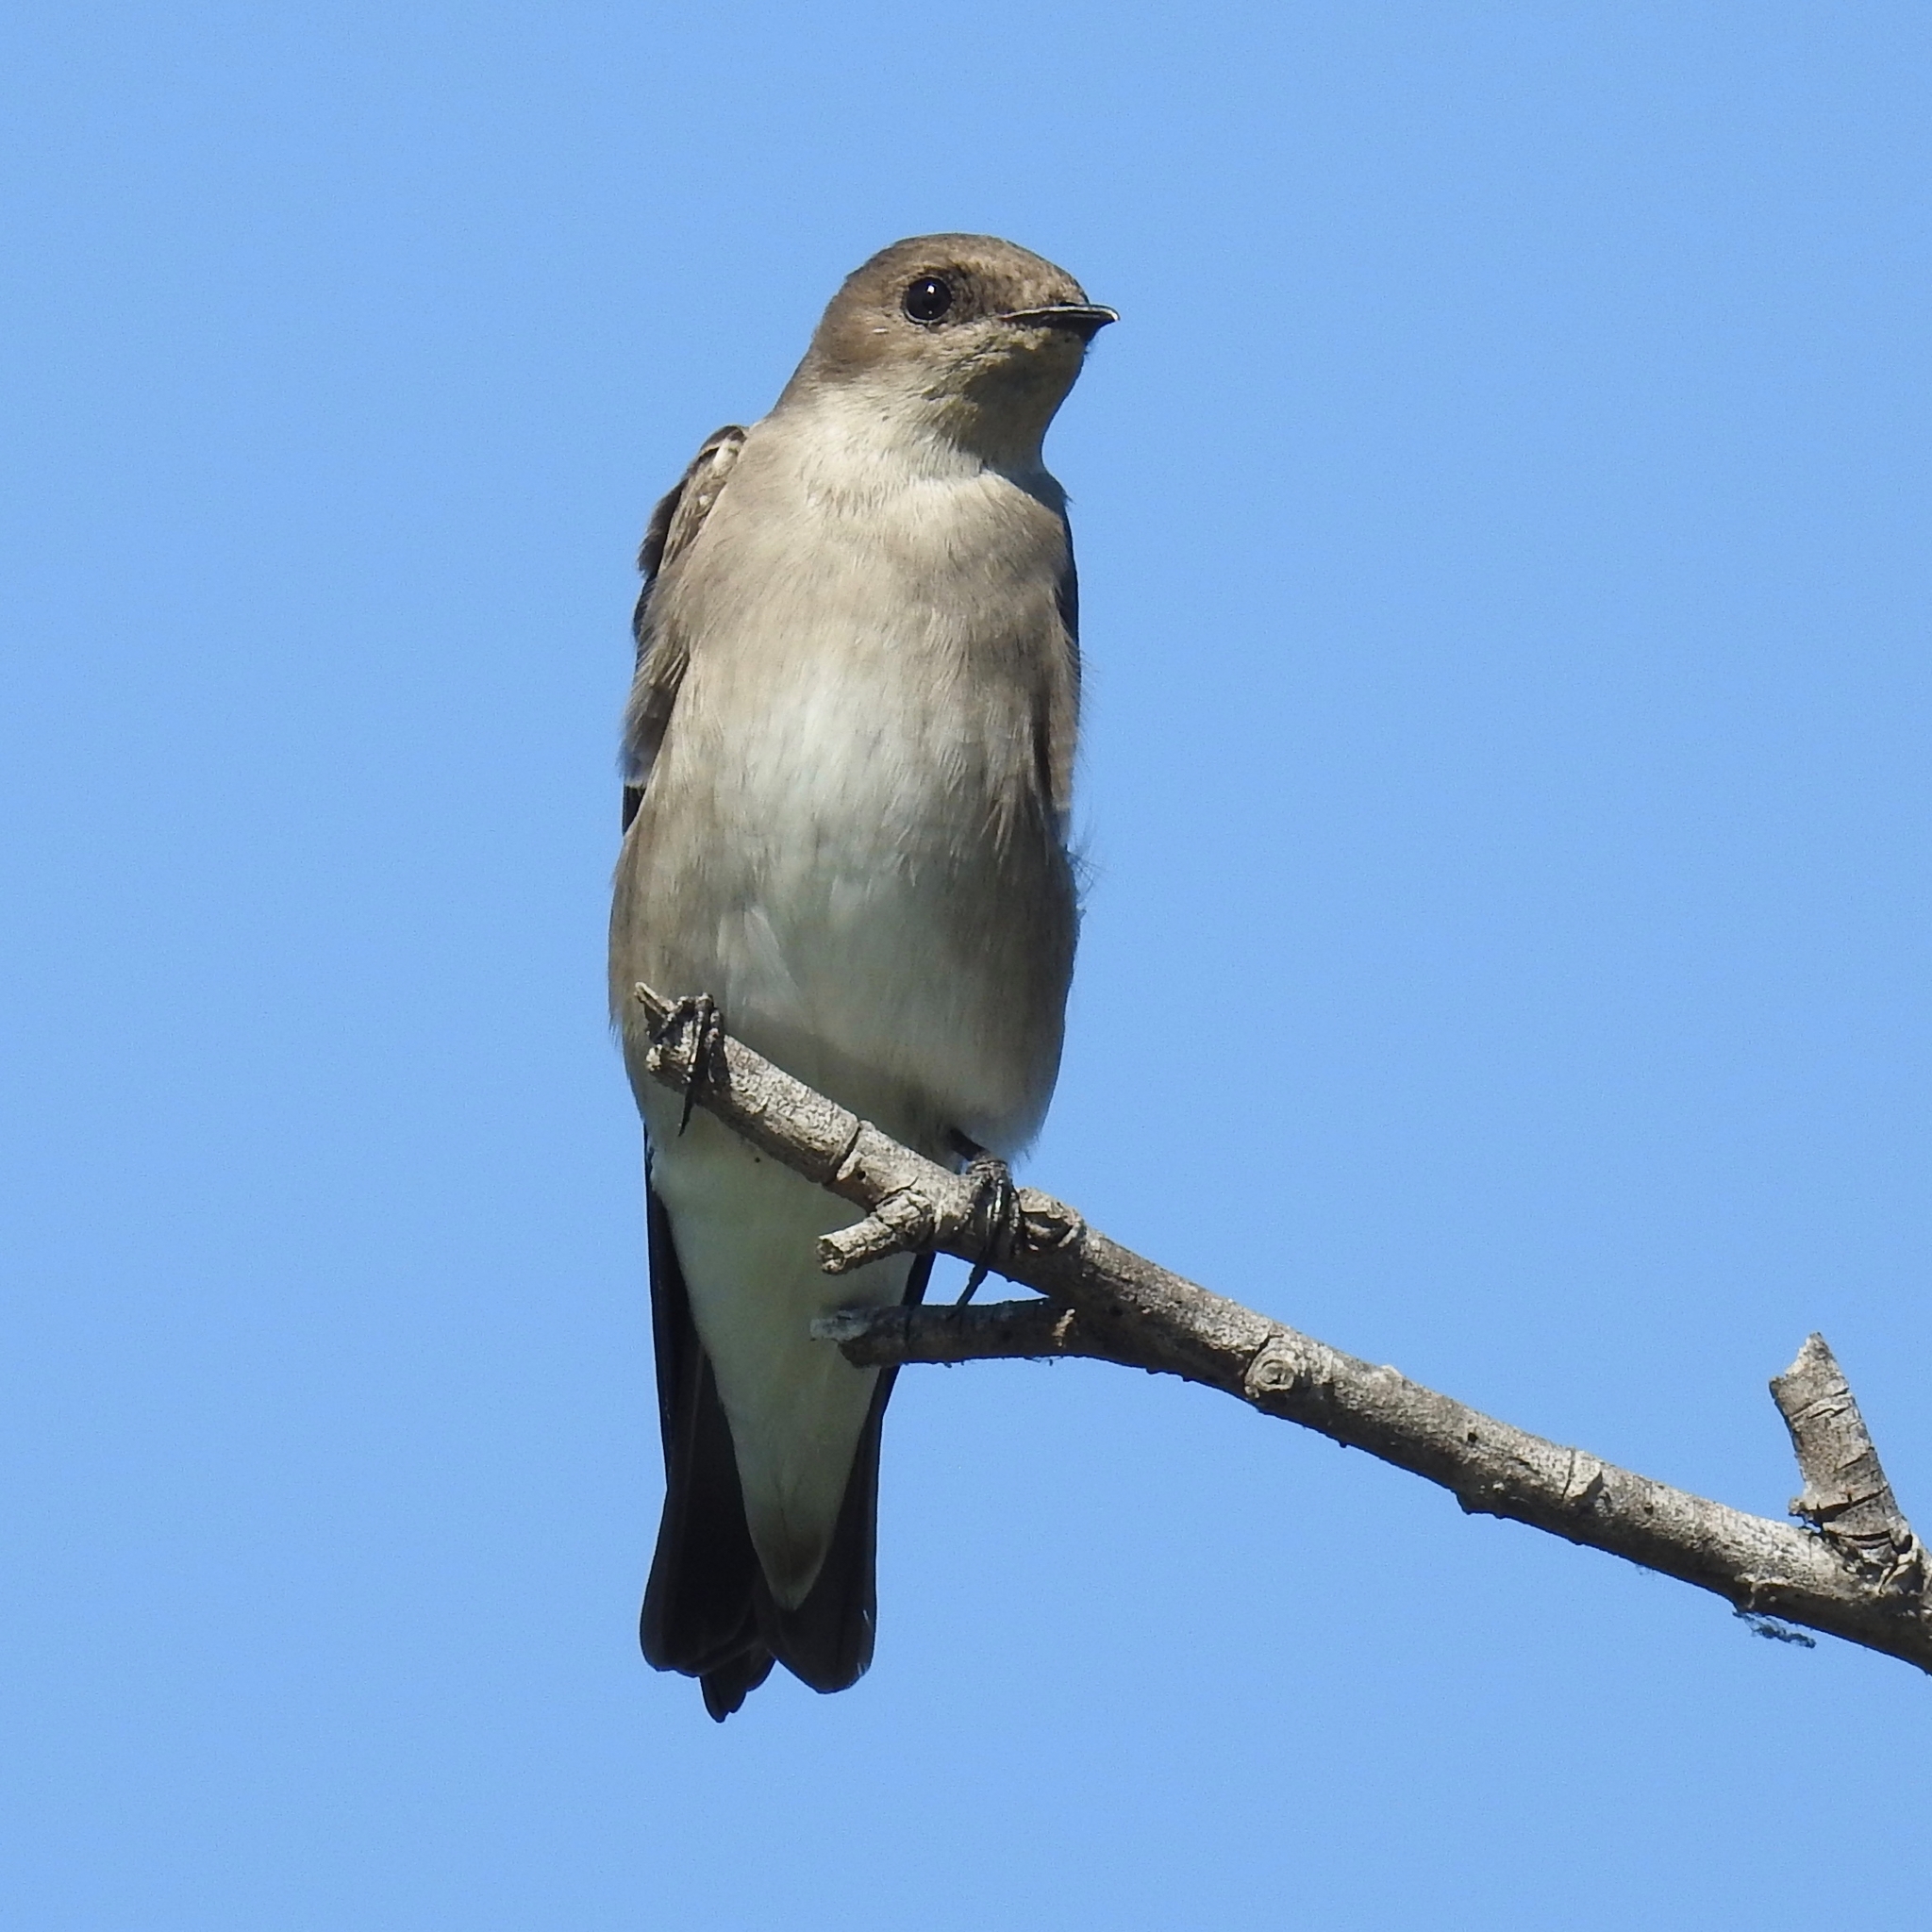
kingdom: Animalia
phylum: Chordata
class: Aves
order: Passeriformes
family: Hirundinidae
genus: Stelgidopteryx
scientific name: Stelgidopteryx serripennis
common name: Northern rough-winged swallow
